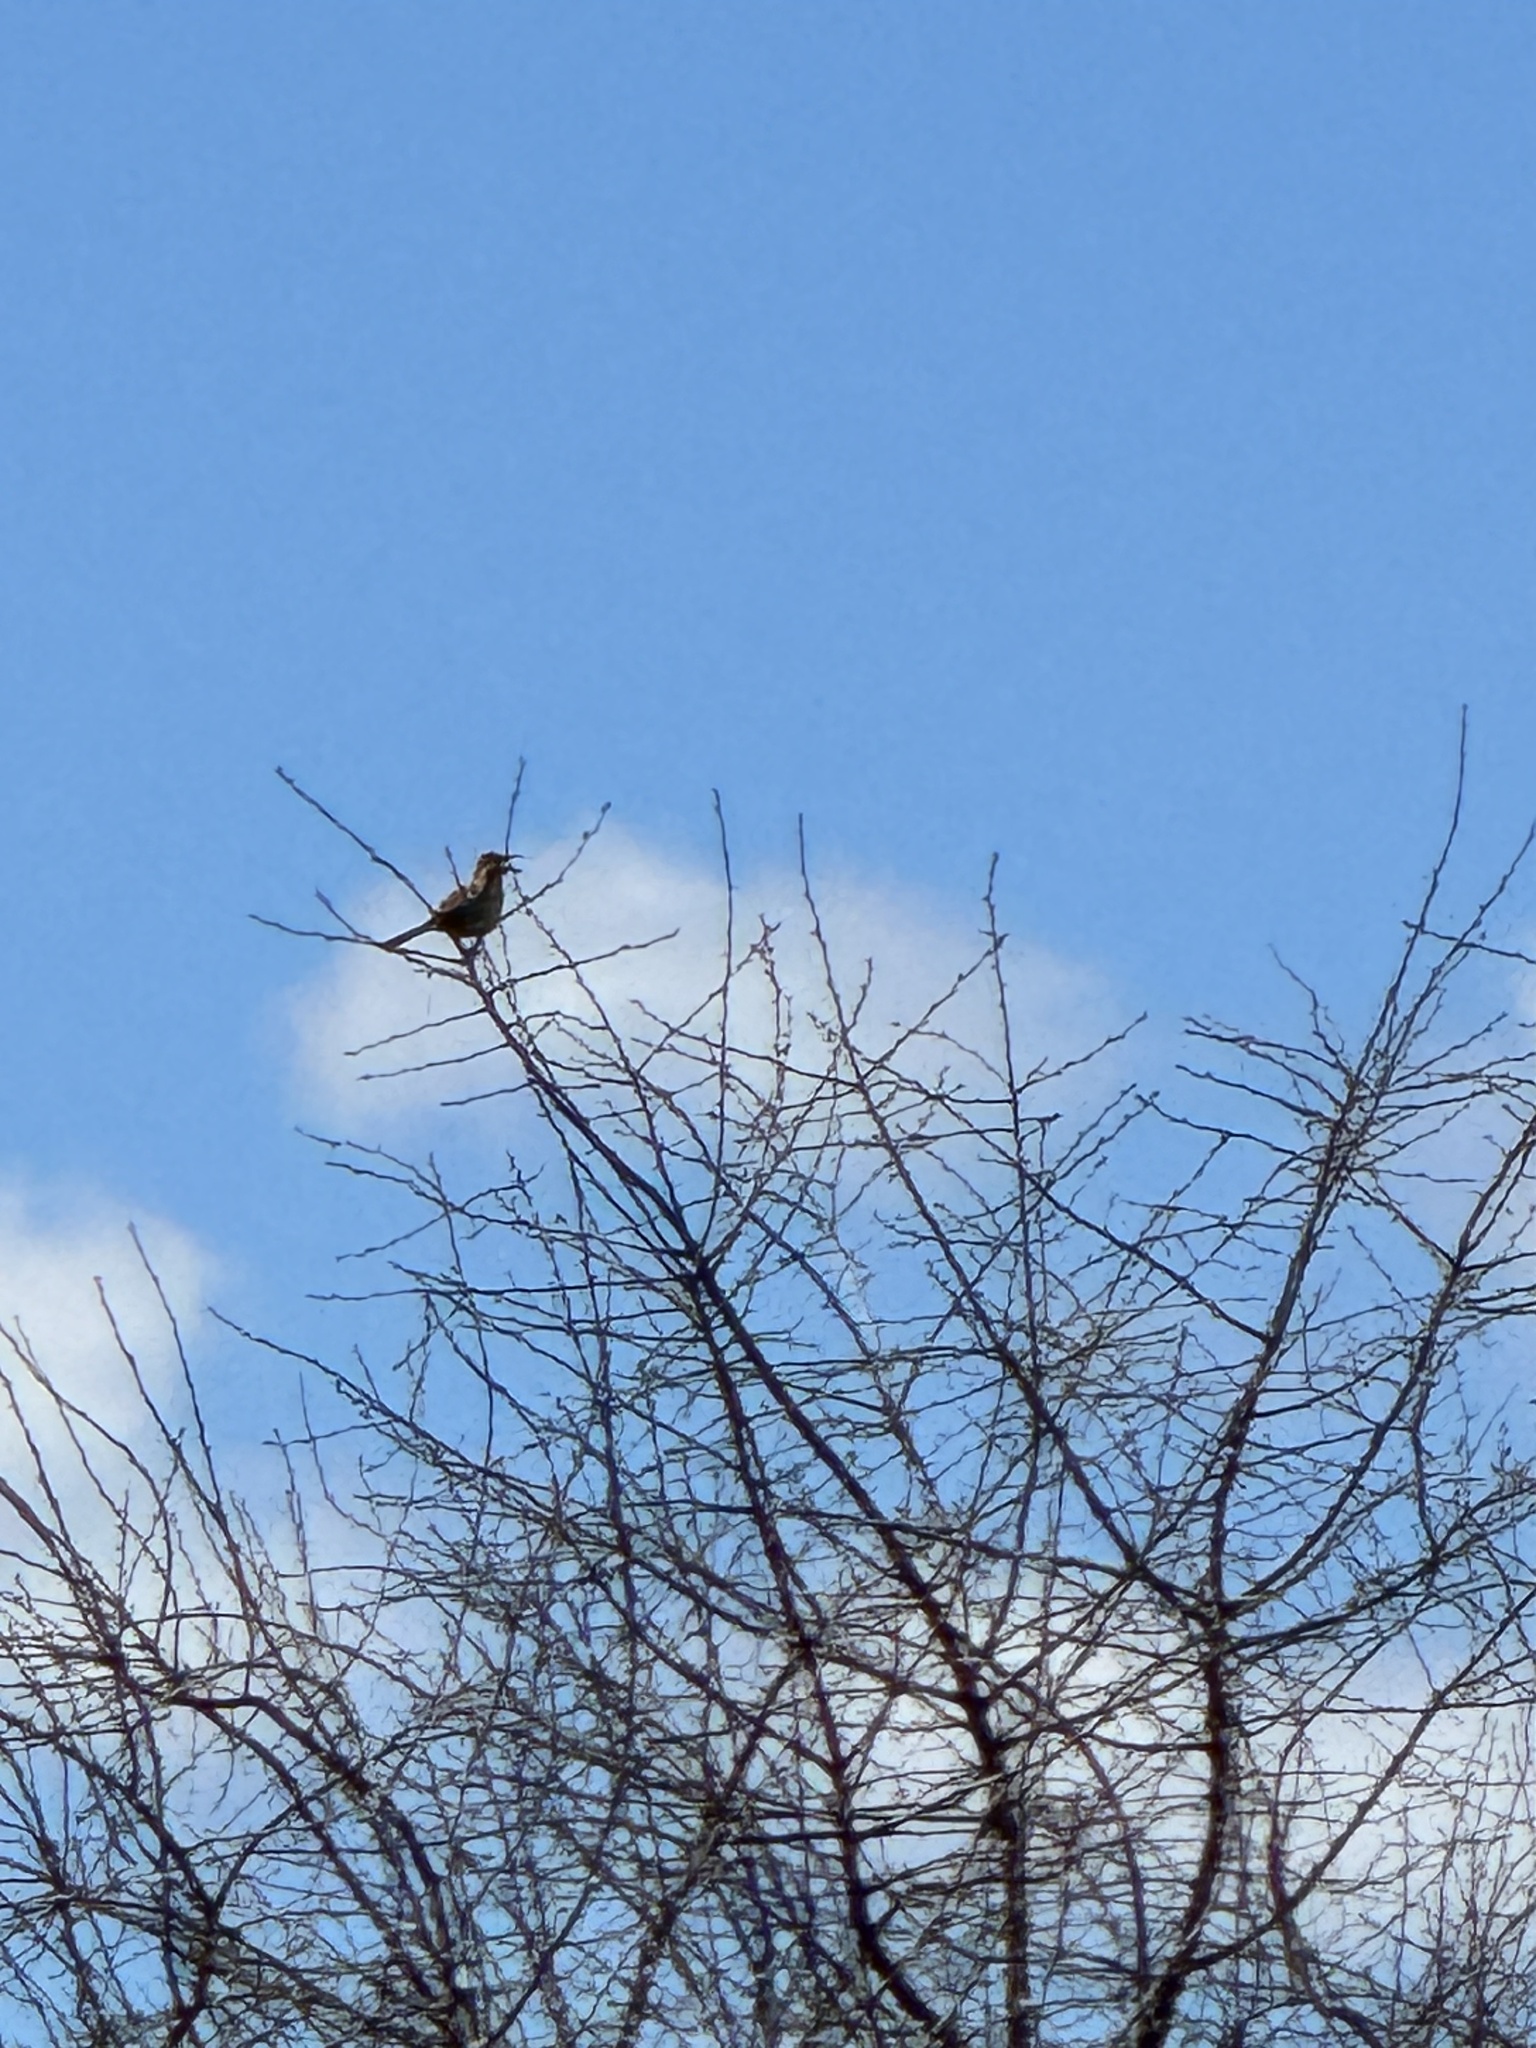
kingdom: Animalia
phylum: Chordata
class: Aves
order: Passeriformes
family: Mimidae
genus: Toxostoma
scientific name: Toxostoma rufum
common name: Brown thrasher
